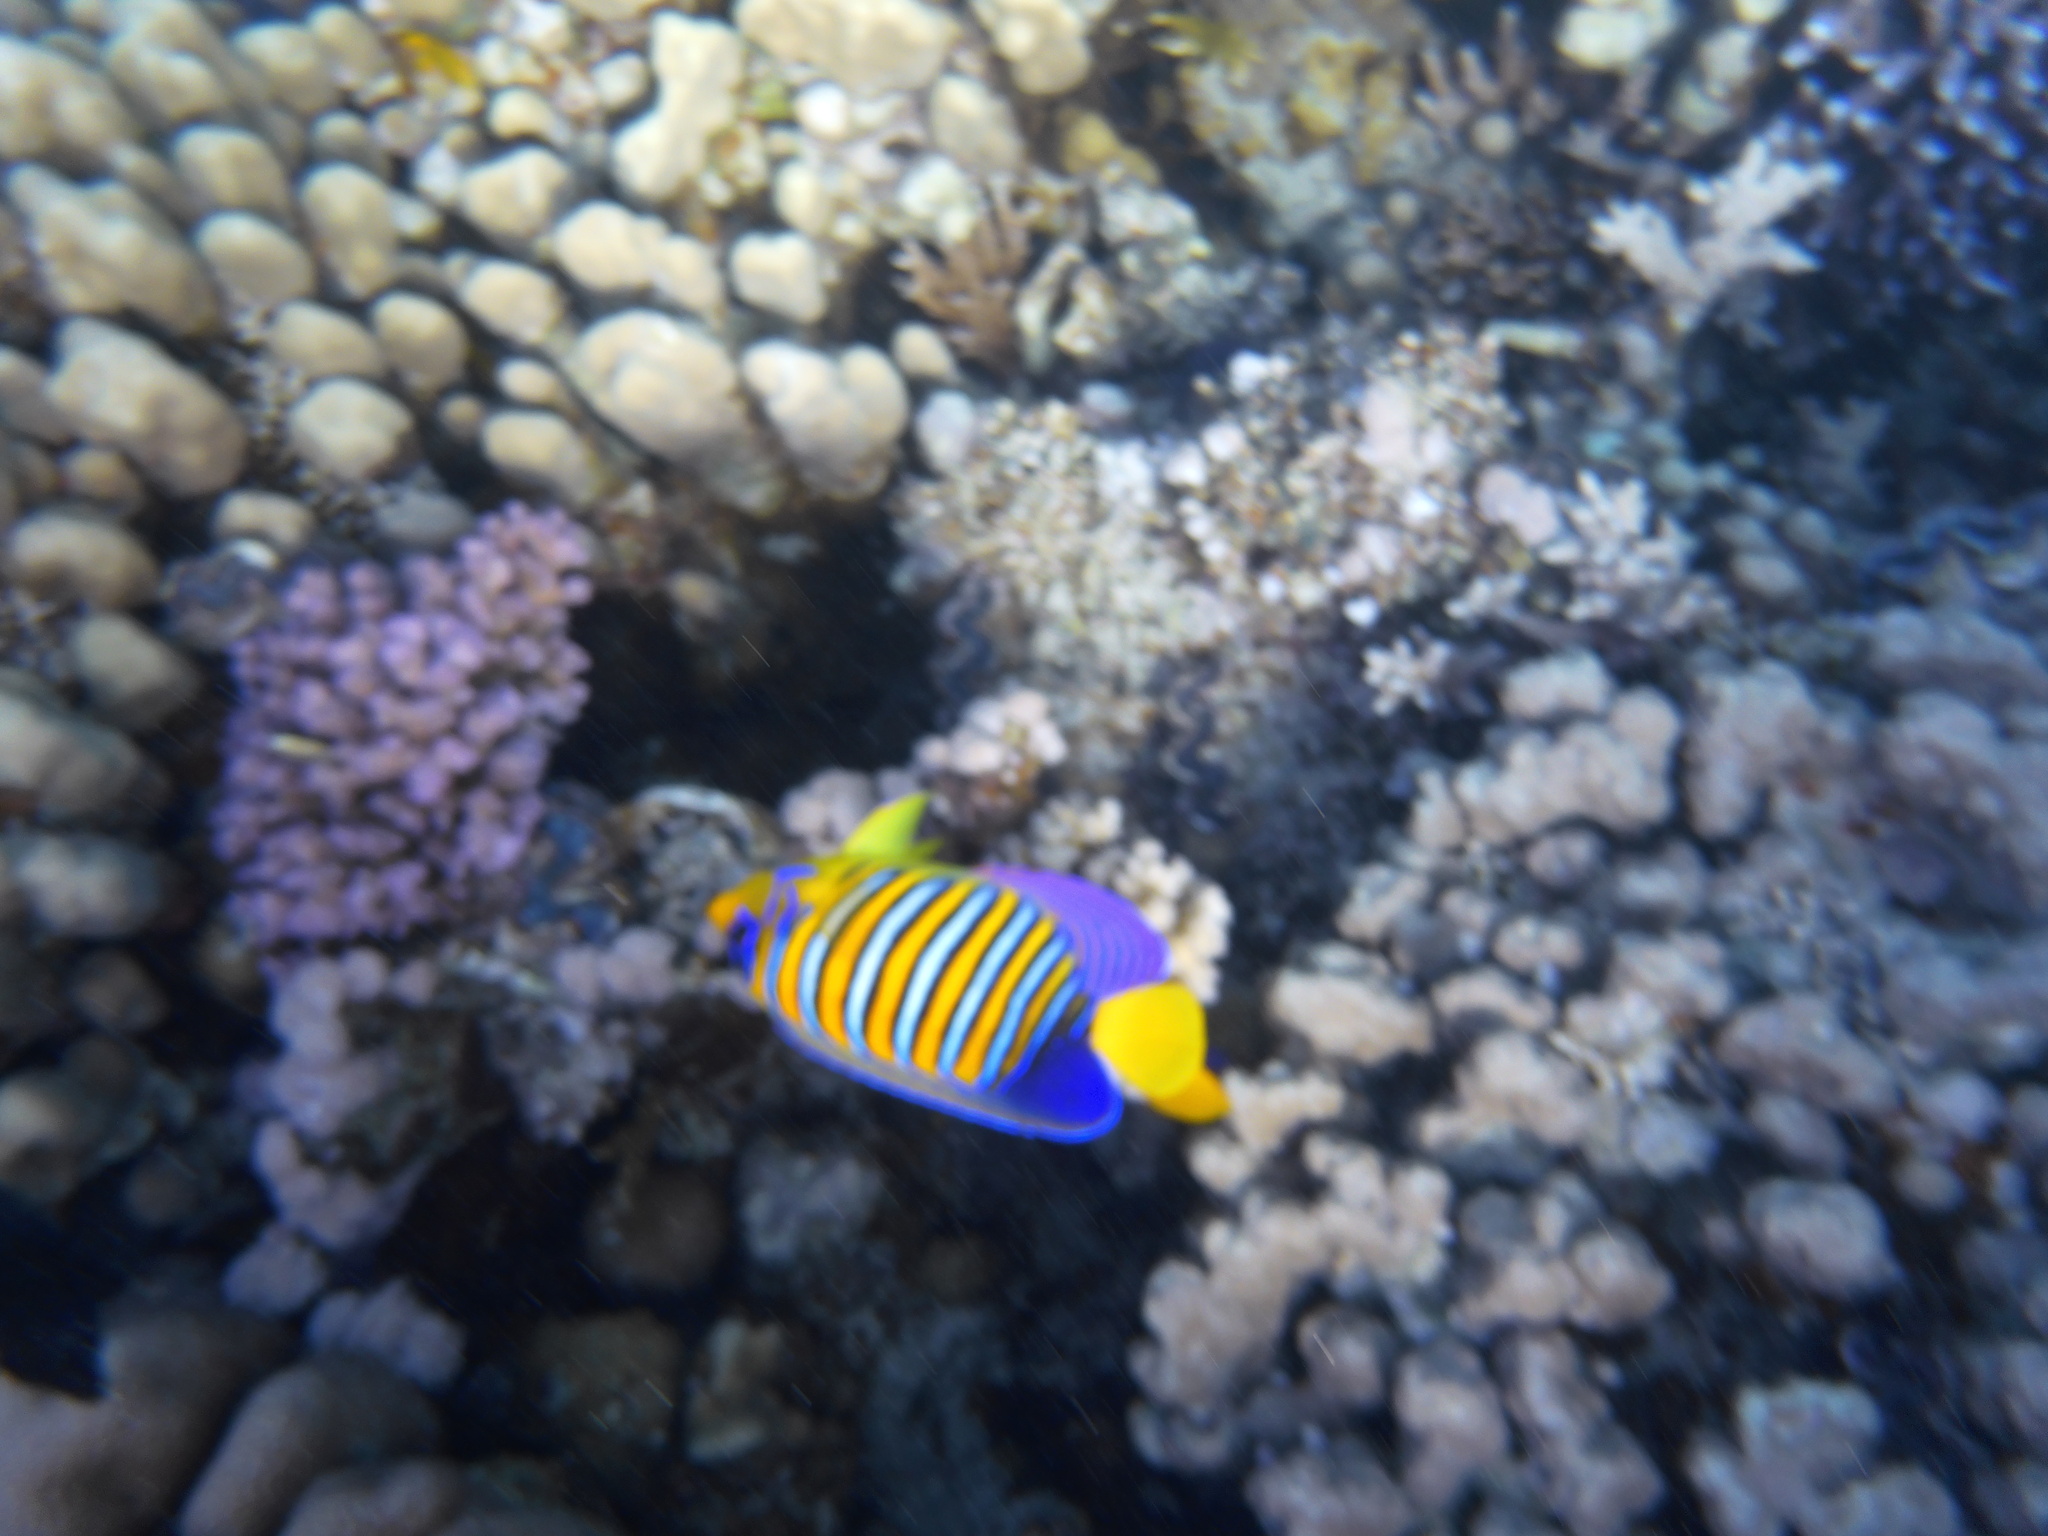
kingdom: Animalia
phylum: Chordata
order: Perciformes
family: Pomacanthidae
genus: Pygoplites
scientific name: Pygoplites diacanthus
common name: Regal angelfish
